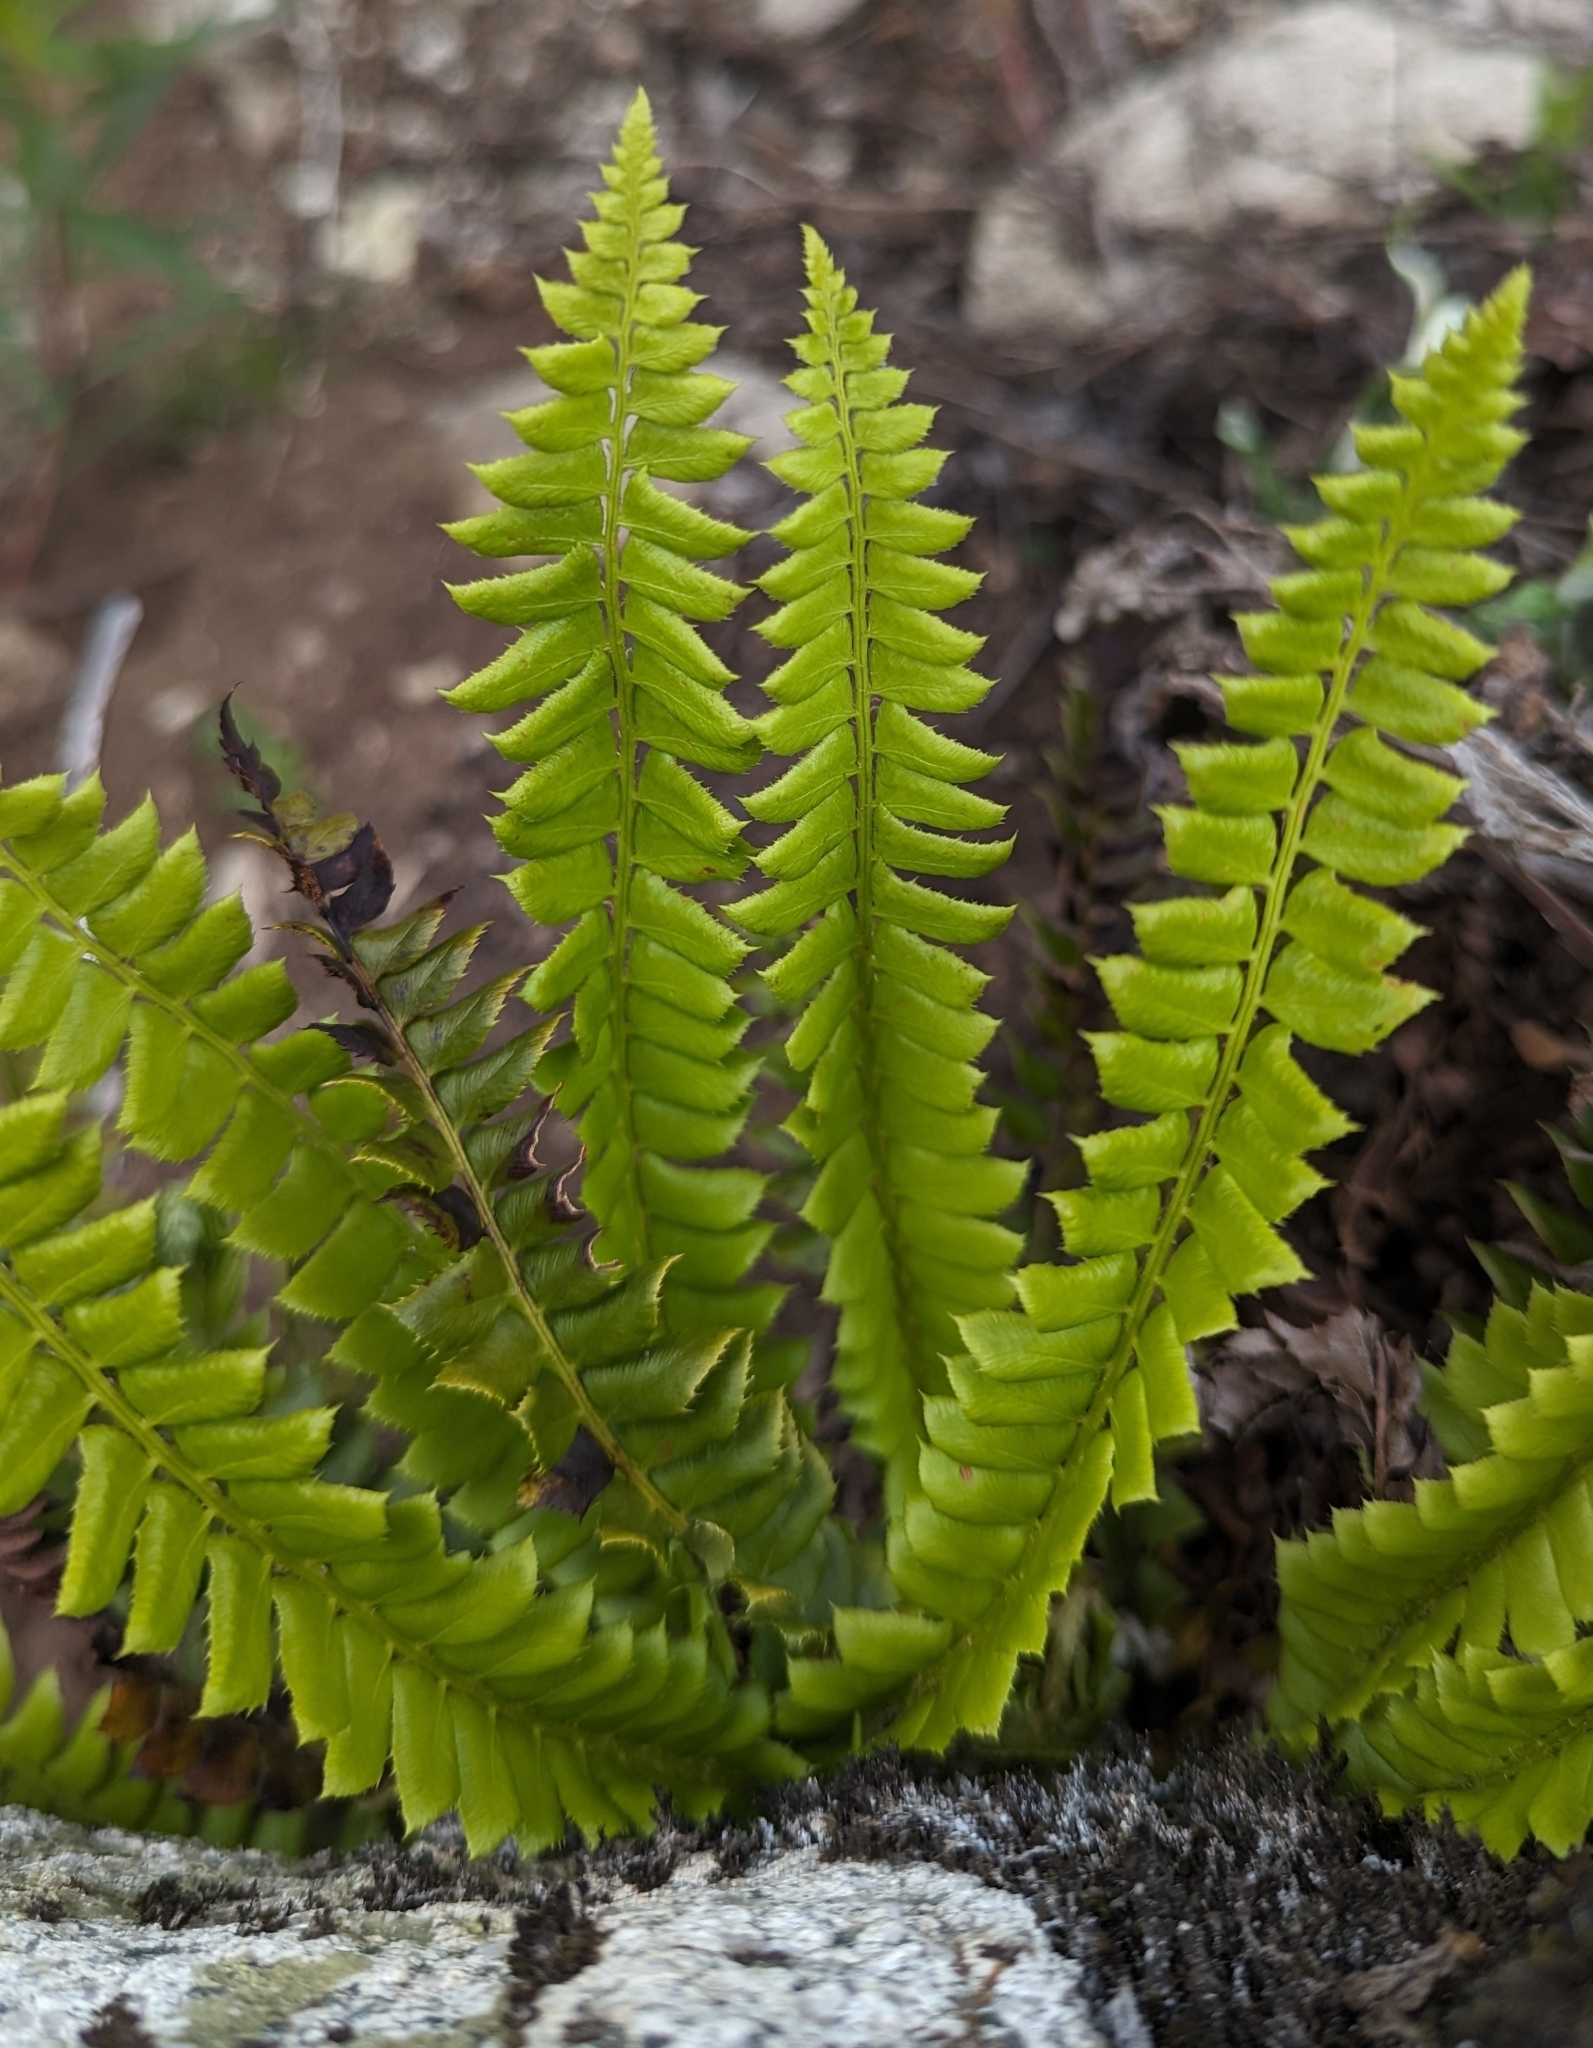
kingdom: Plantae
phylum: Tracheophyta
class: Polypodiopsida
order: Polypodiales
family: Dryopteridaceae
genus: Polystichum
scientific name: Polystichum lonchitis
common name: Holly fern
